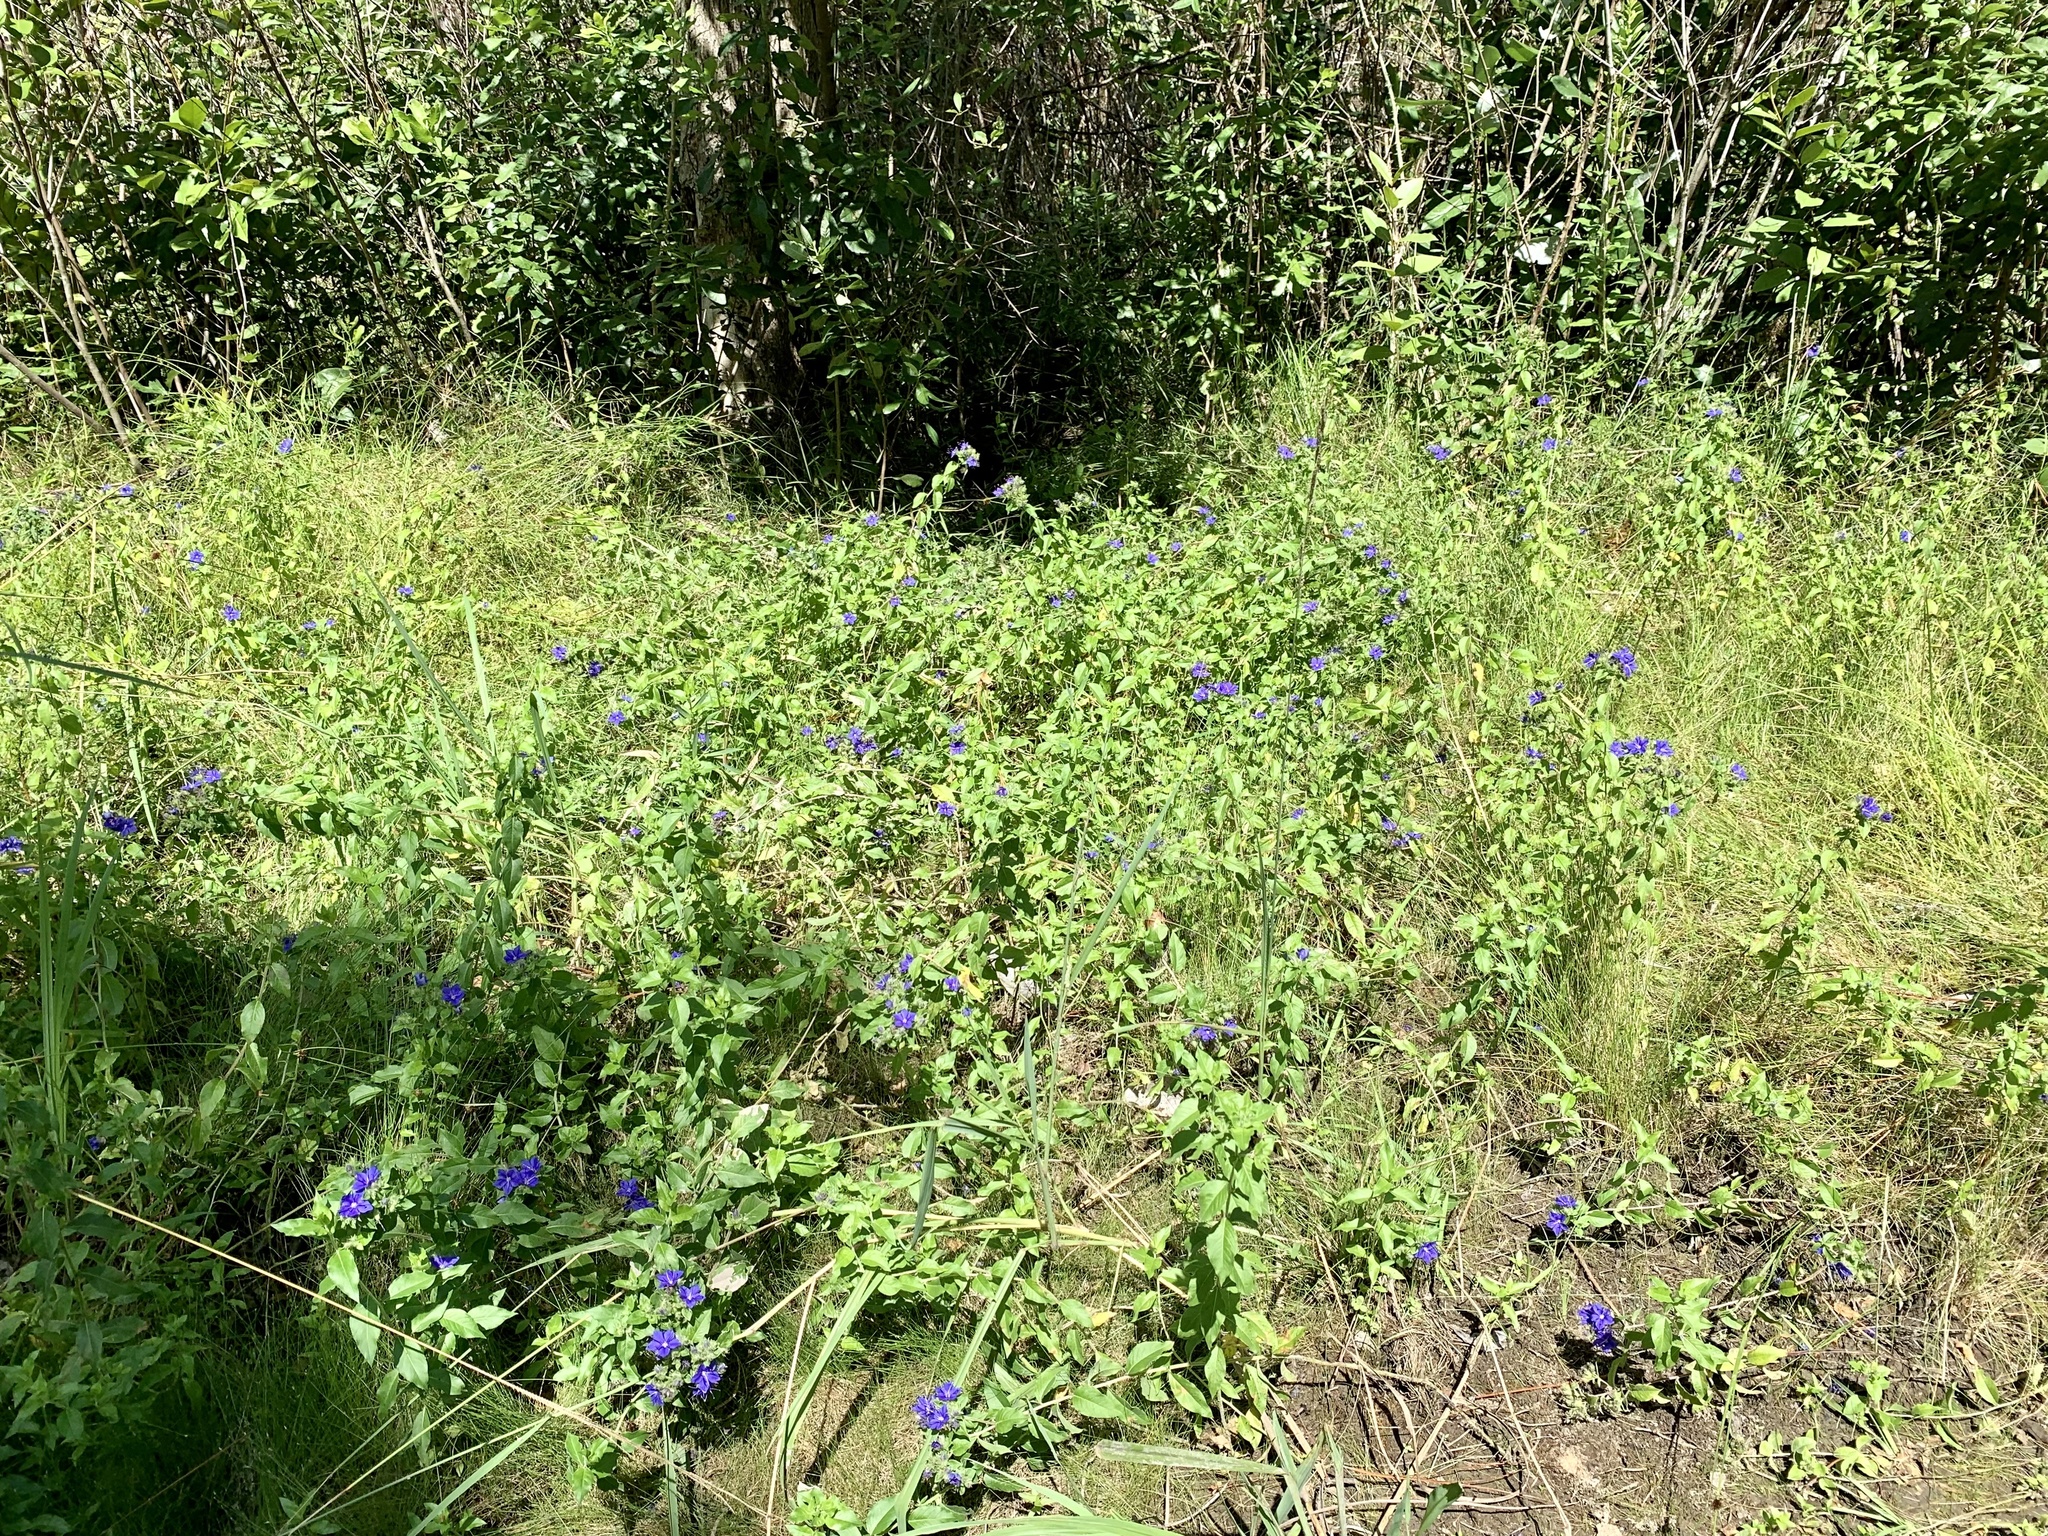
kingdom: Plantae
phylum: Tracheophyta
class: Magnoliopsida
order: Solanales
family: Hydroleaceae
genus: Hydrolea
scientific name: Hydrolea ovata
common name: Ovate false fiddleleaf
